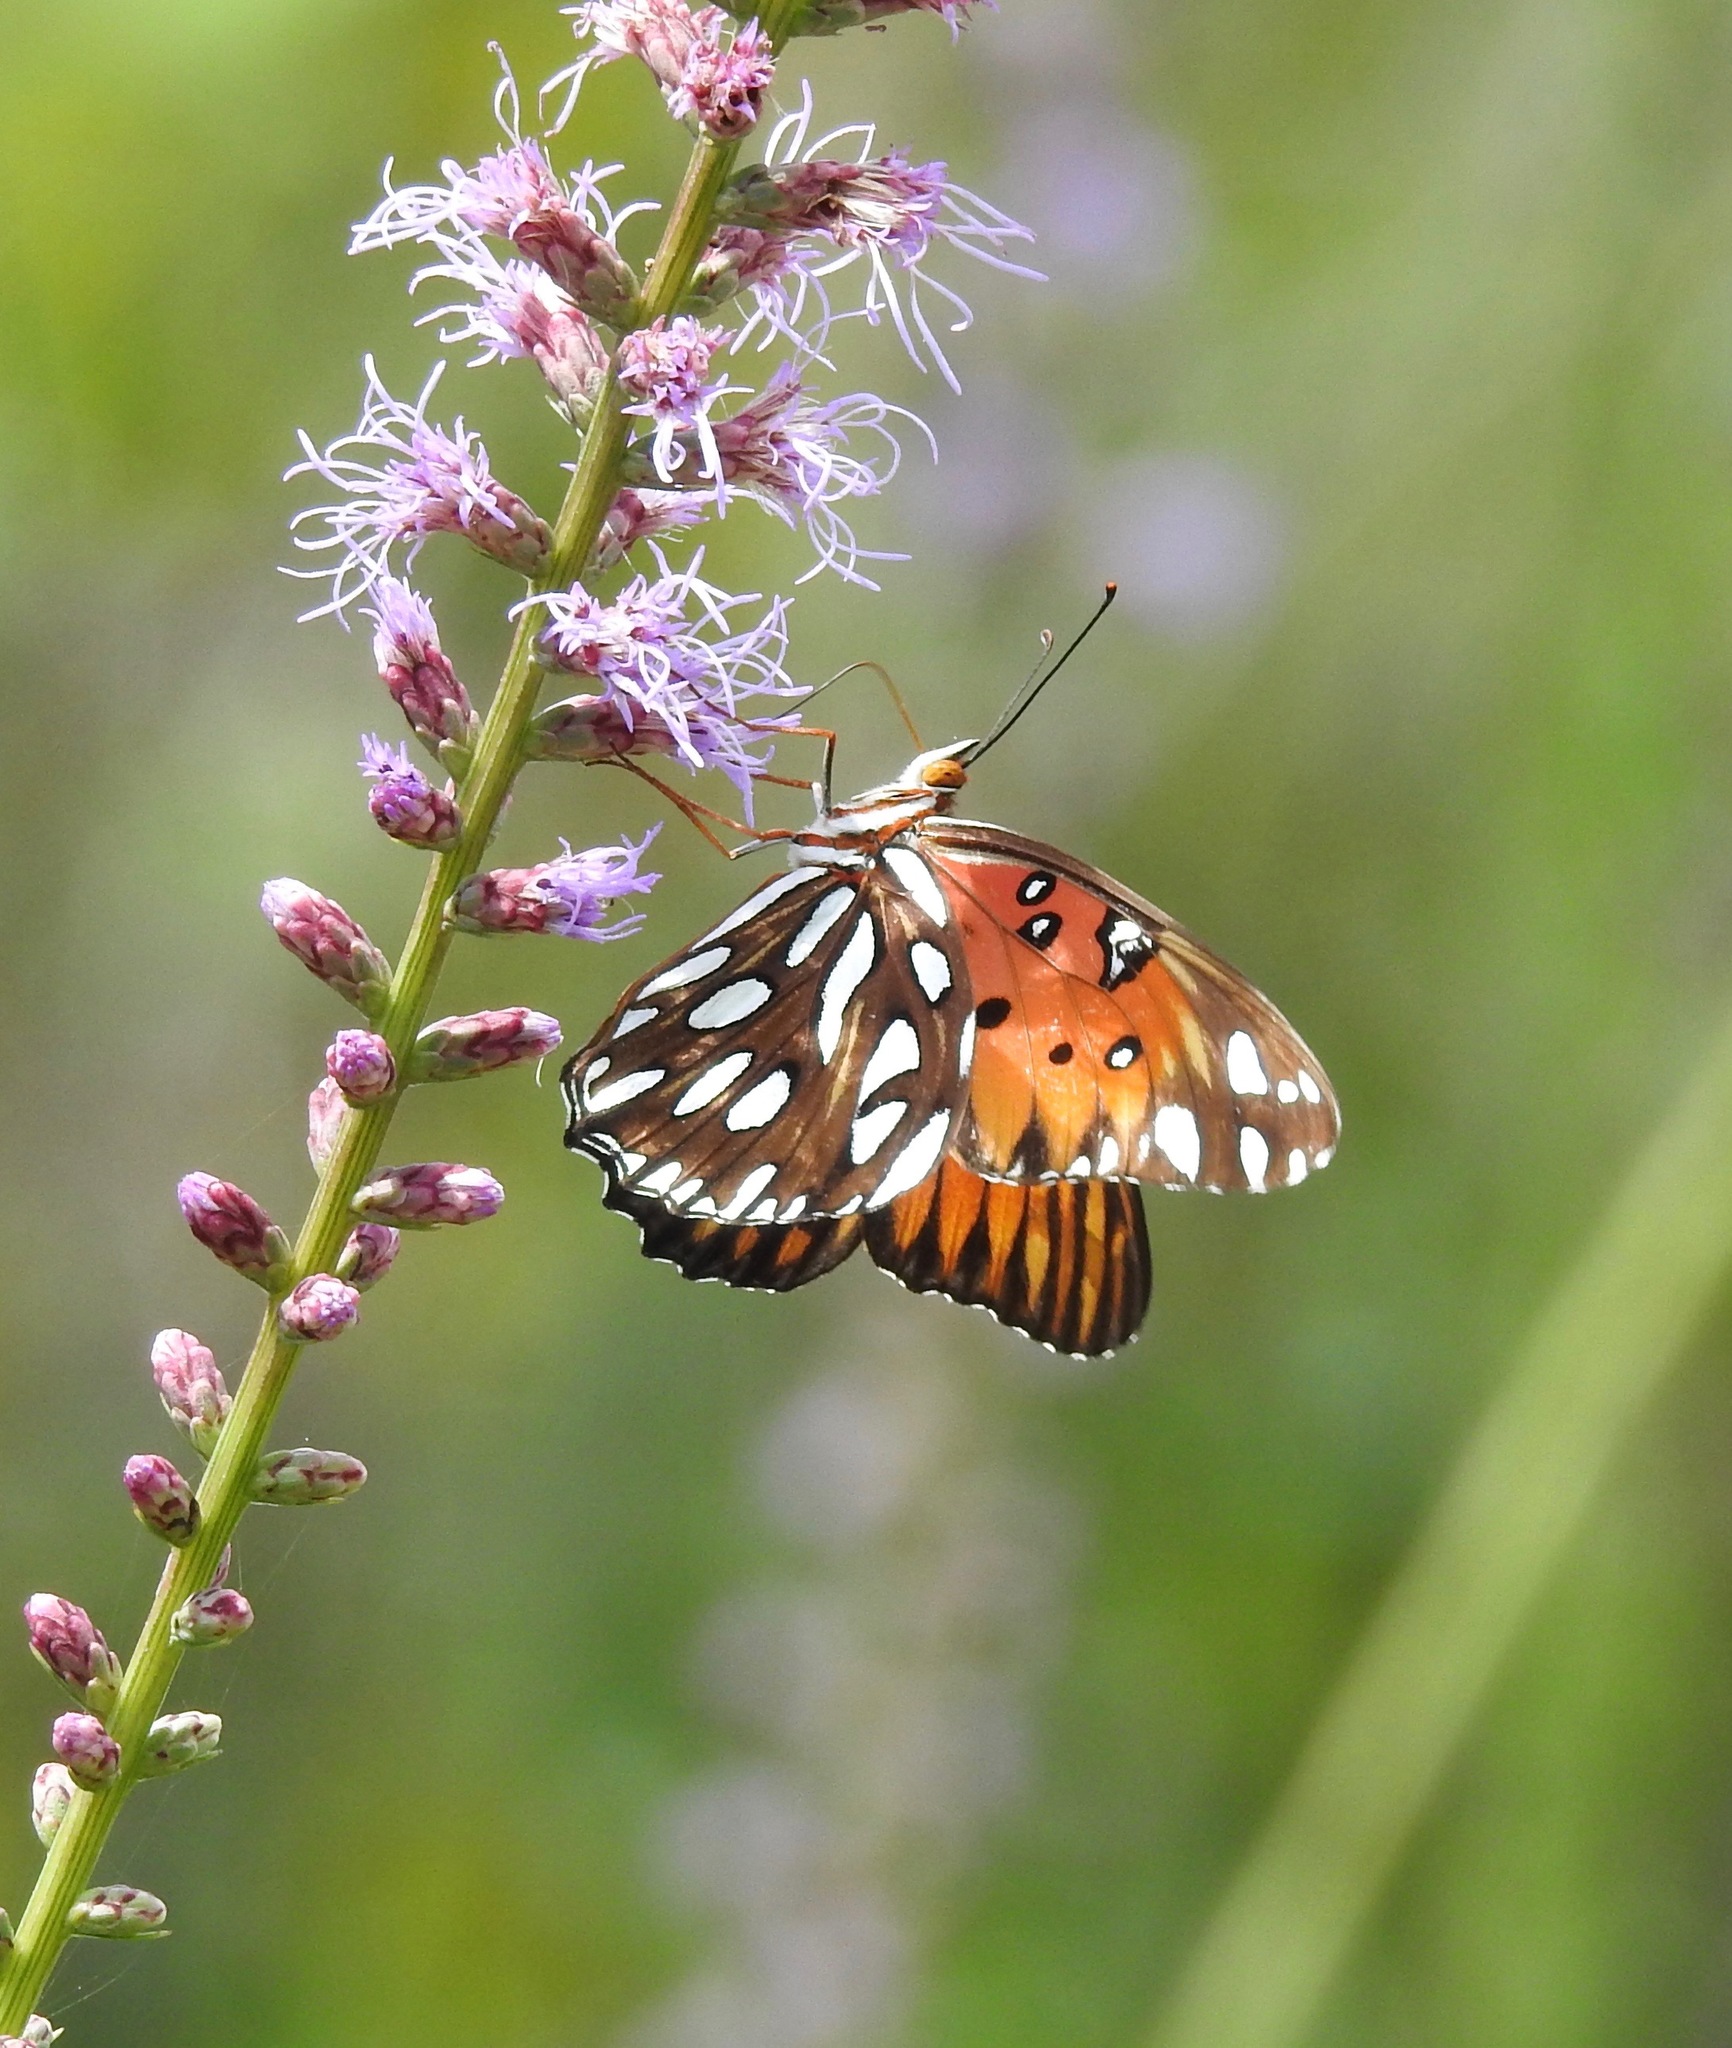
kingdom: Animalia
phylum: Arthropoda
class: Insecta
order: Lepidoptera
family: Nymphalidae
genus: Dione
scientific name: Dione vanillae
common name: Gulf fritillary
